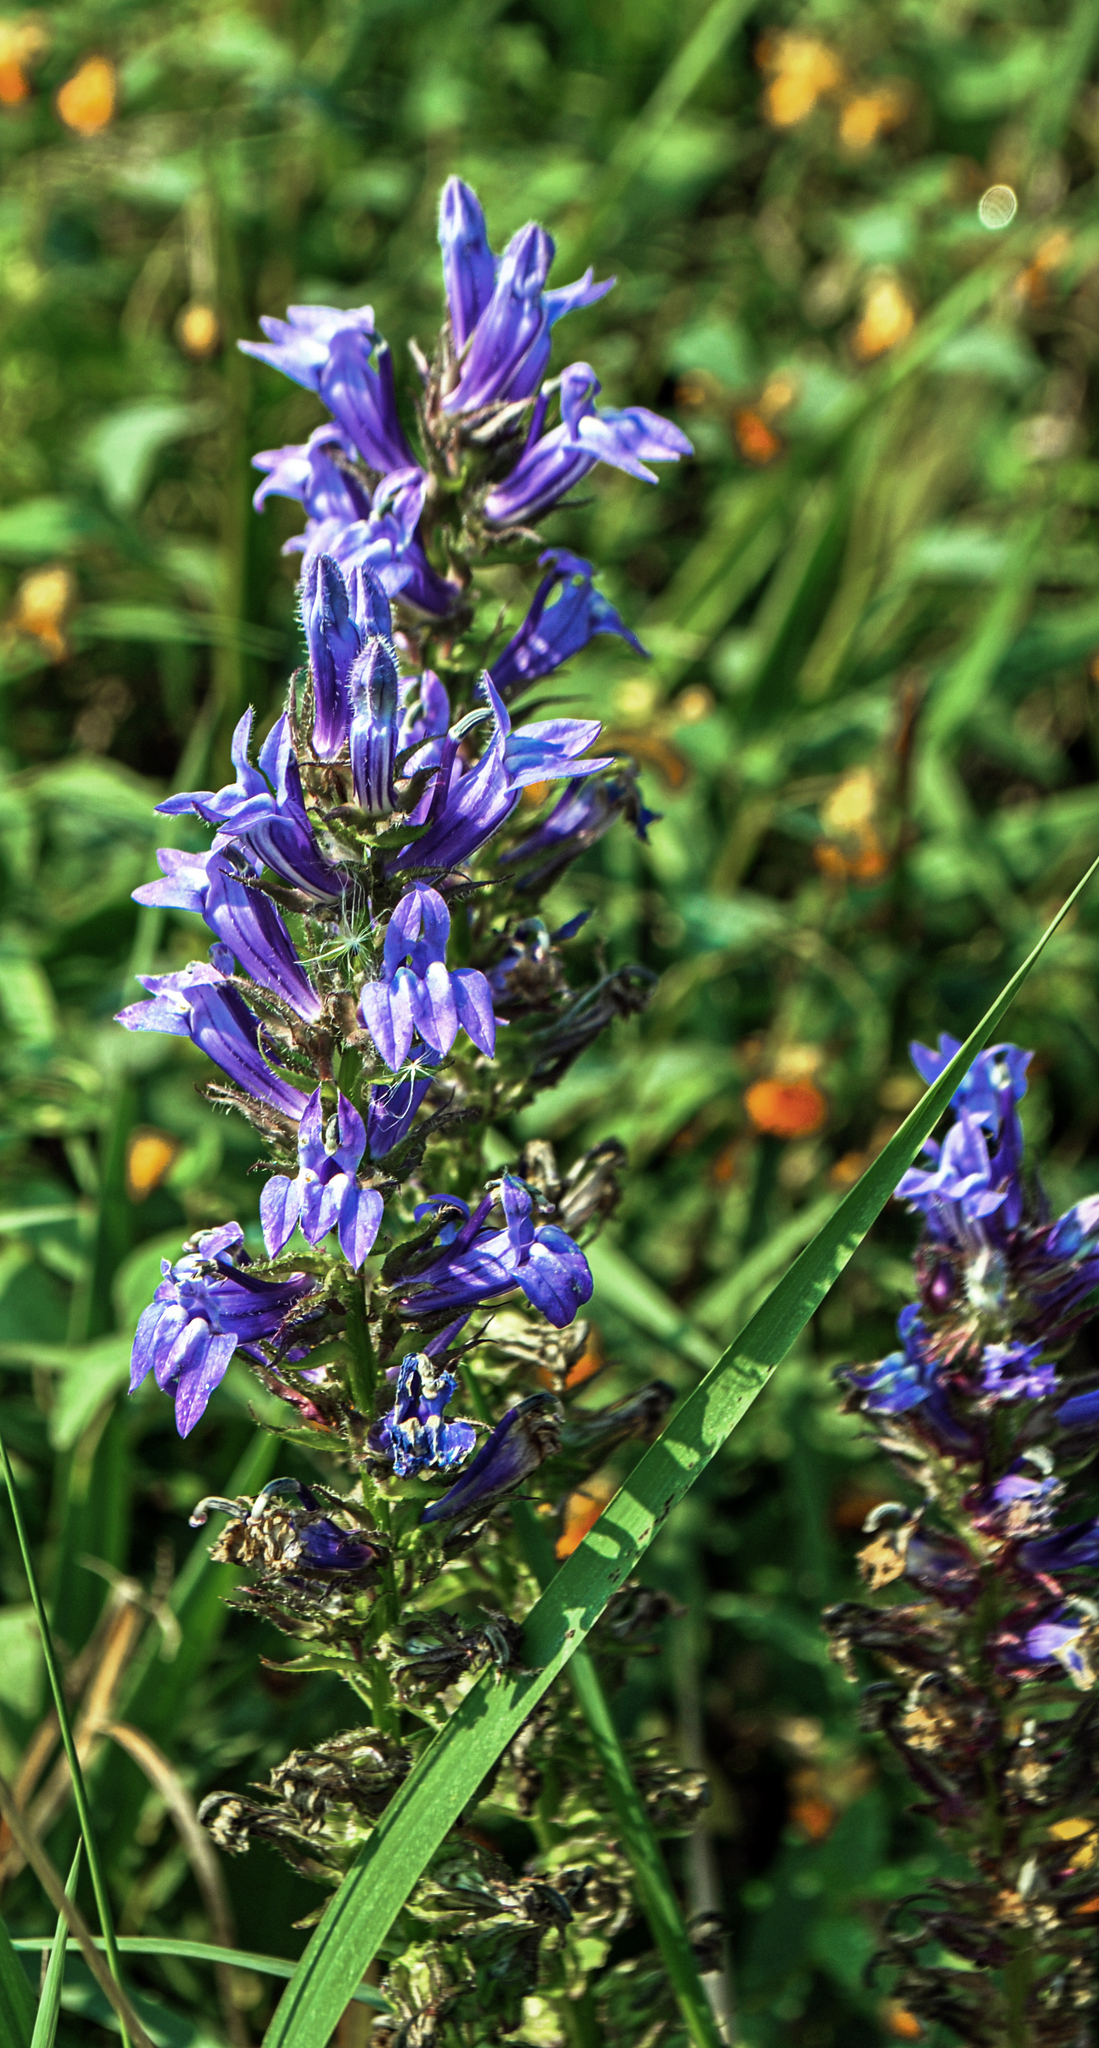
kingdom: Plantae
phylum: Tracheophyta
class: Magnoliopsida
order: Asterales
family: Campanulaceae
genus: Lobelia
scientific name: Lobelia siphilitica
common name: Great lobelia
